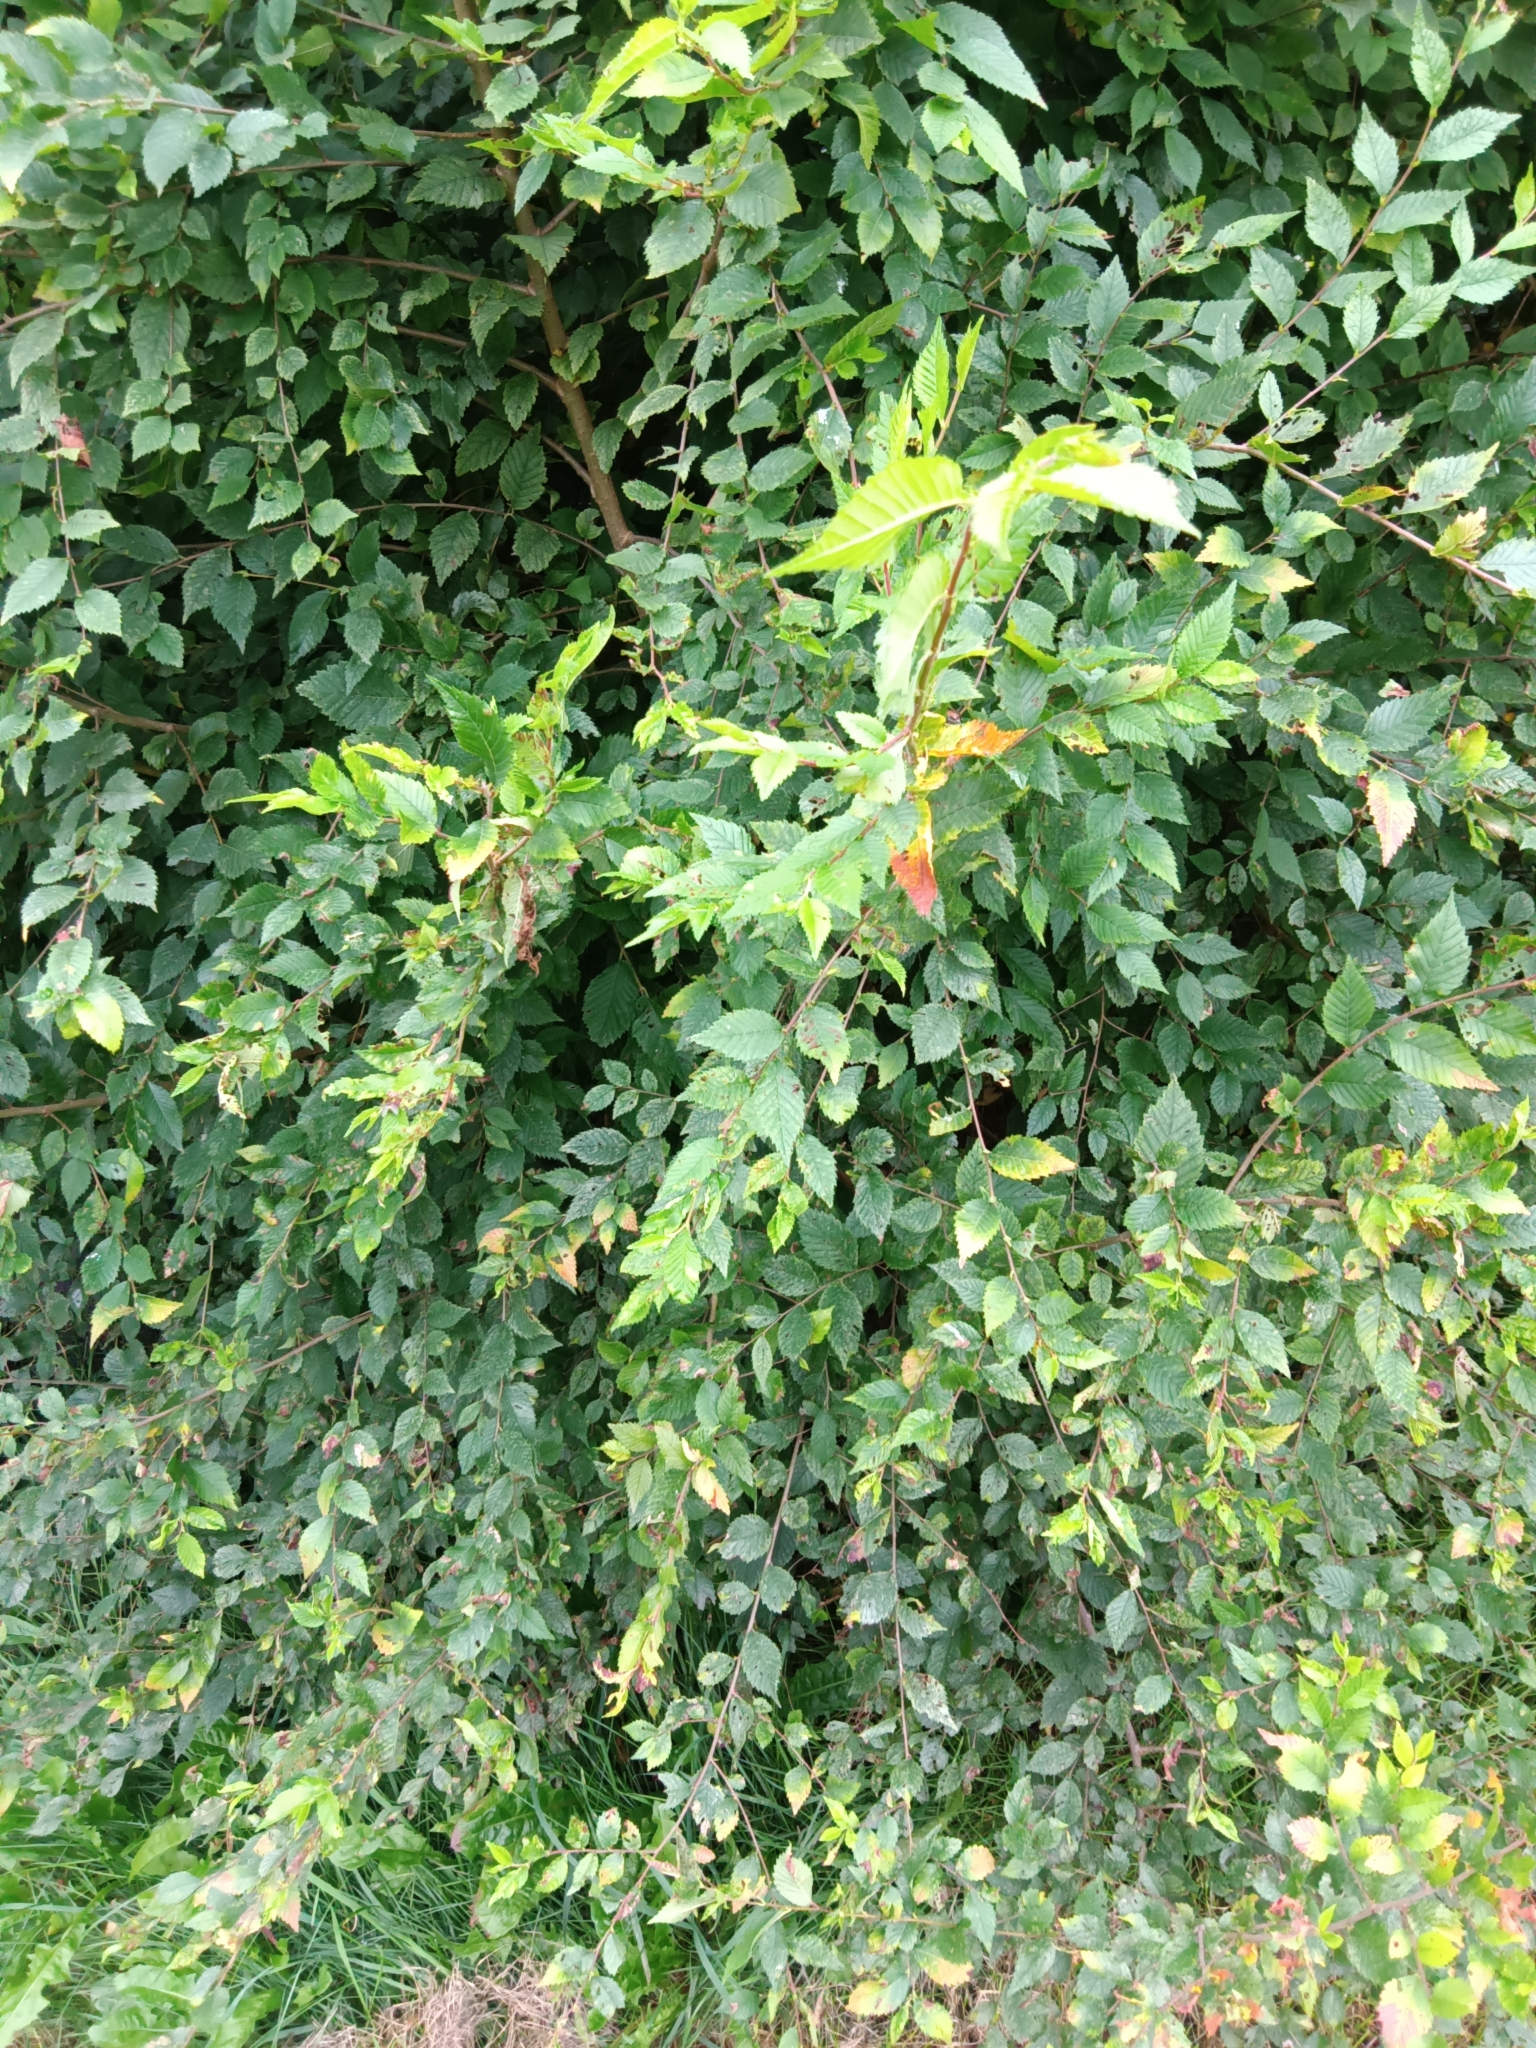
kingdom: Plantae
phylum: Tracheophyta
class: Magnoliopsida
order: Rosales
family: Ulmaceae
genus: Ulmus
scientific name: Ulmus pumila
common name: Siberian elm
